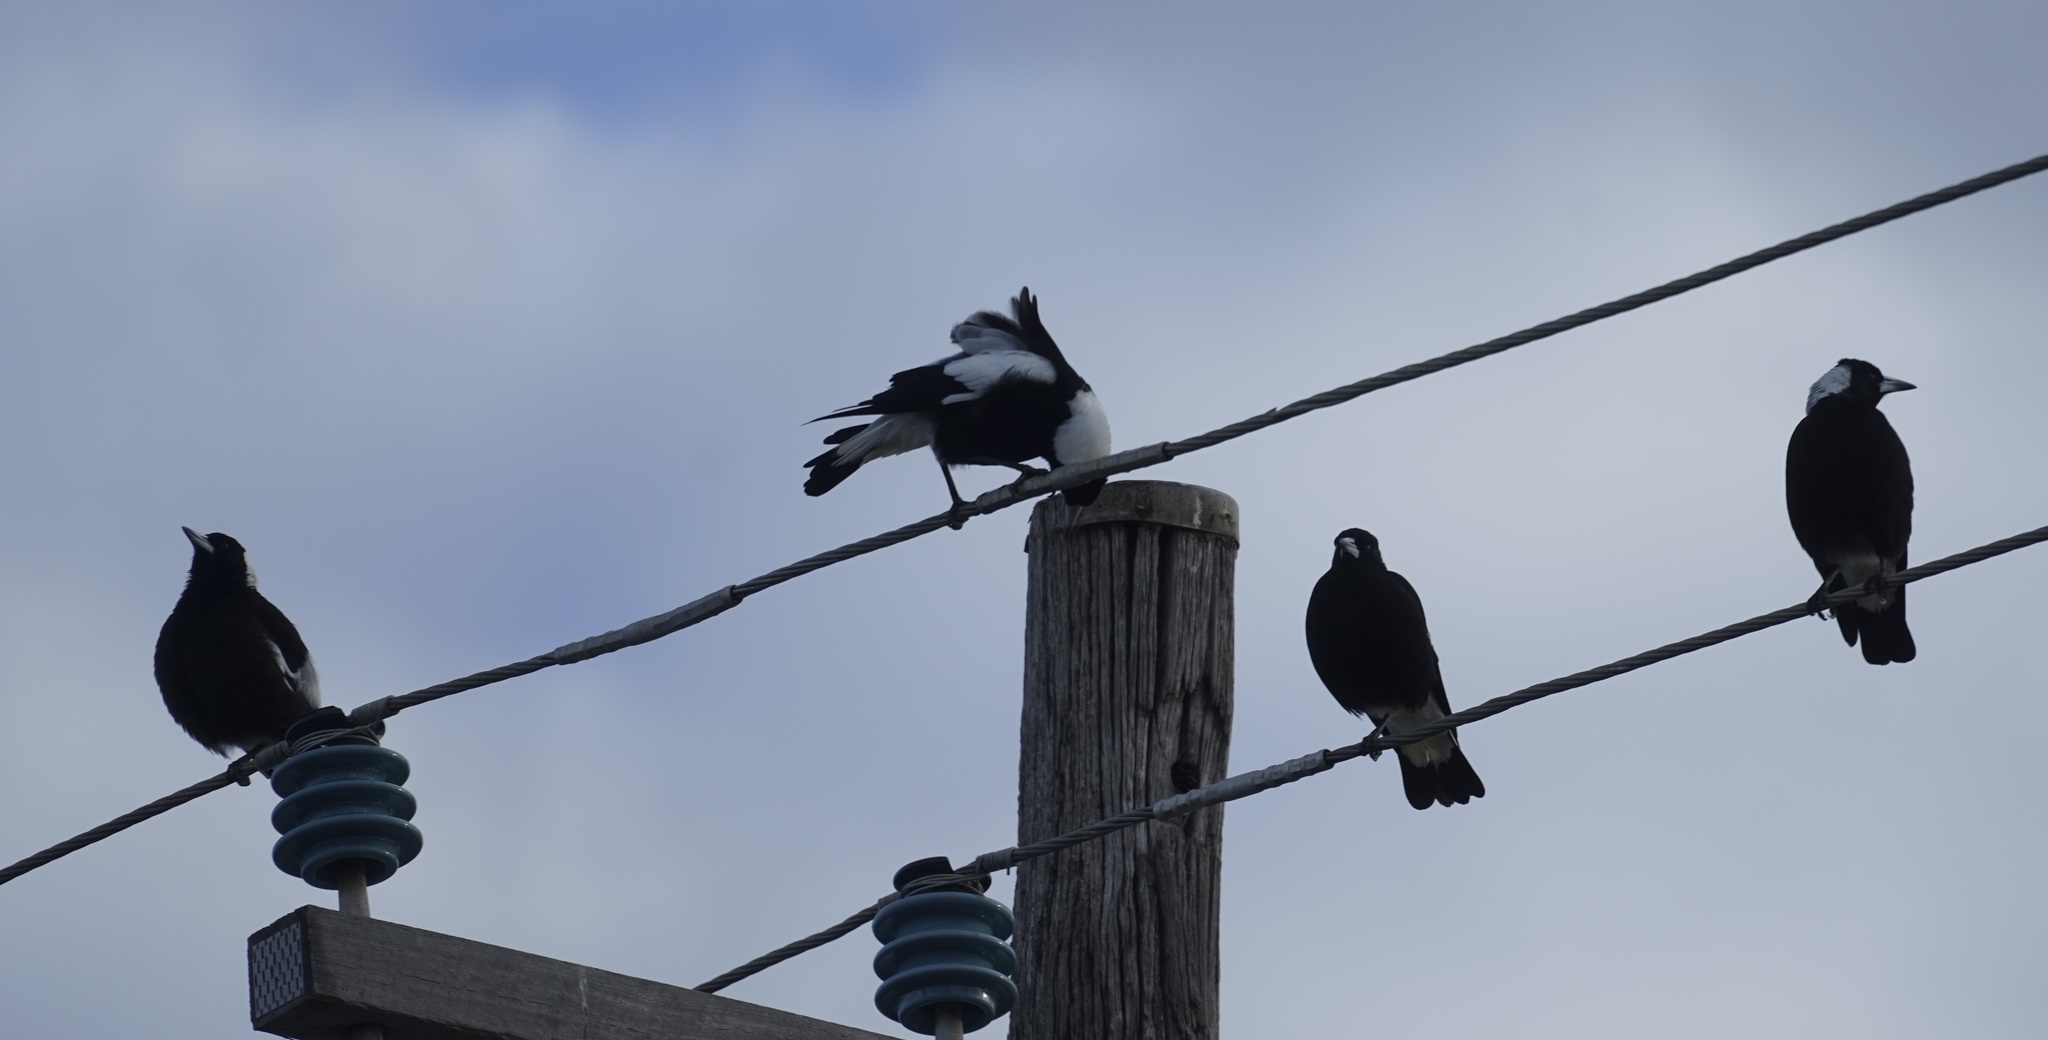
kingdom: Animalia
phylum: Chordata
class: Aves
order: Passeriformes
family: Cracticidae
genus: Gymnorhina
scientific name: Gymnorhina tibicen
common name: Australian magpie
